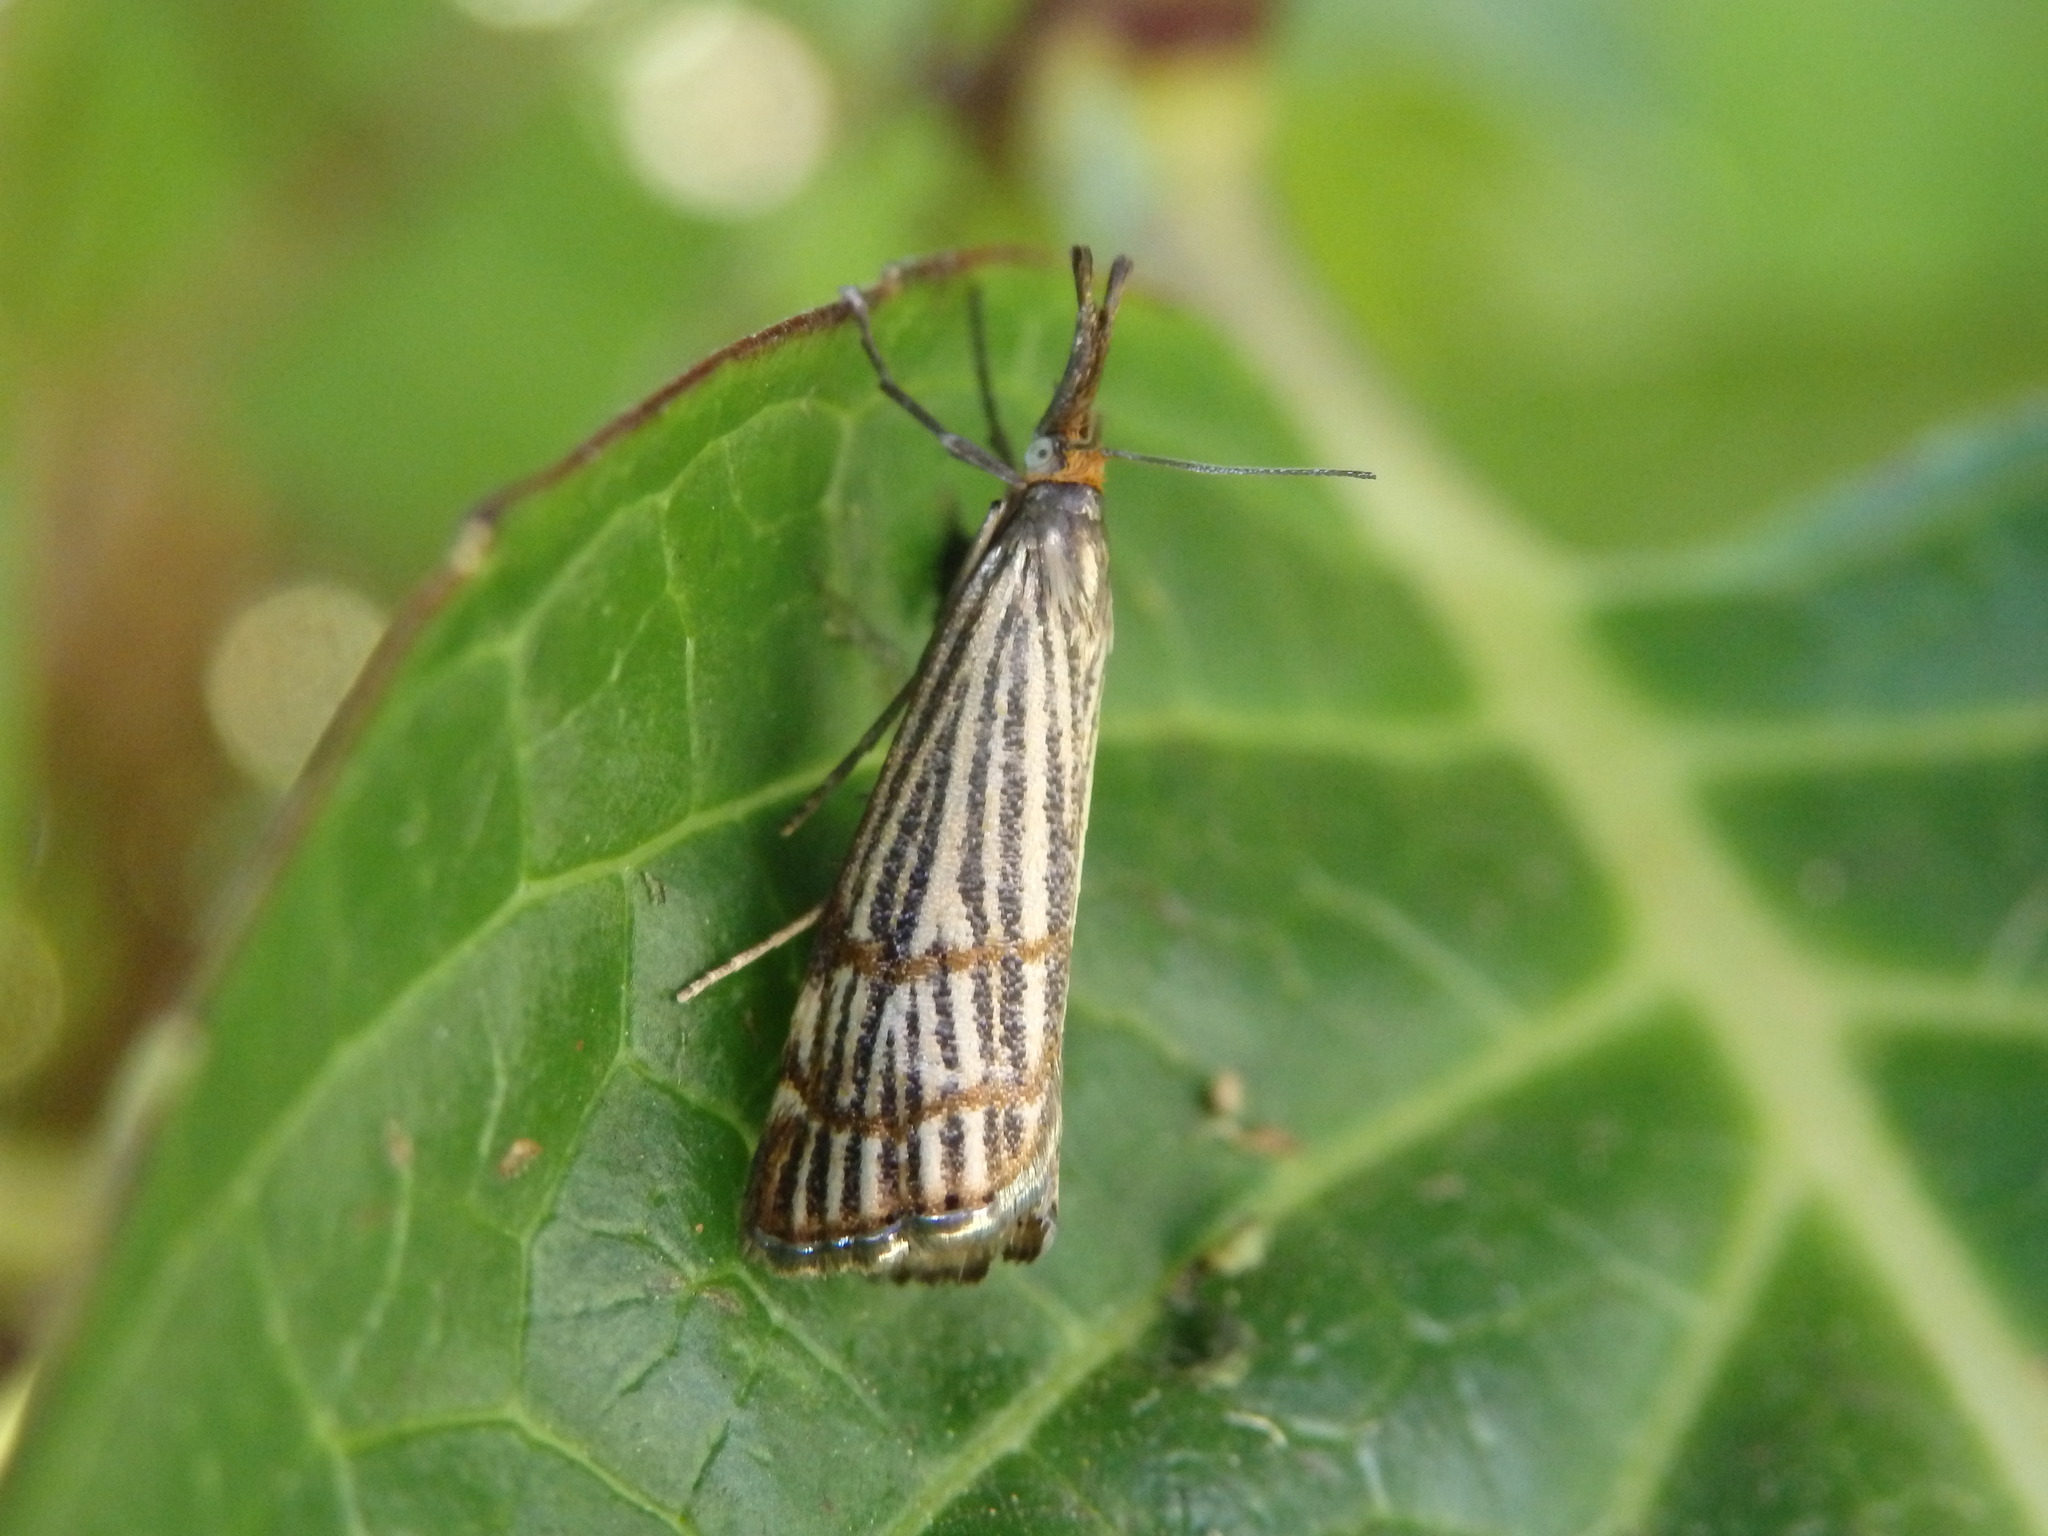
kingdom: Animalia
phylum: Arthropoda
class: Insecta
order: Lepidoptera
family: Crambidae
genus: Chrysocrambus
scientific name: Chrysocrambus dentuellus
